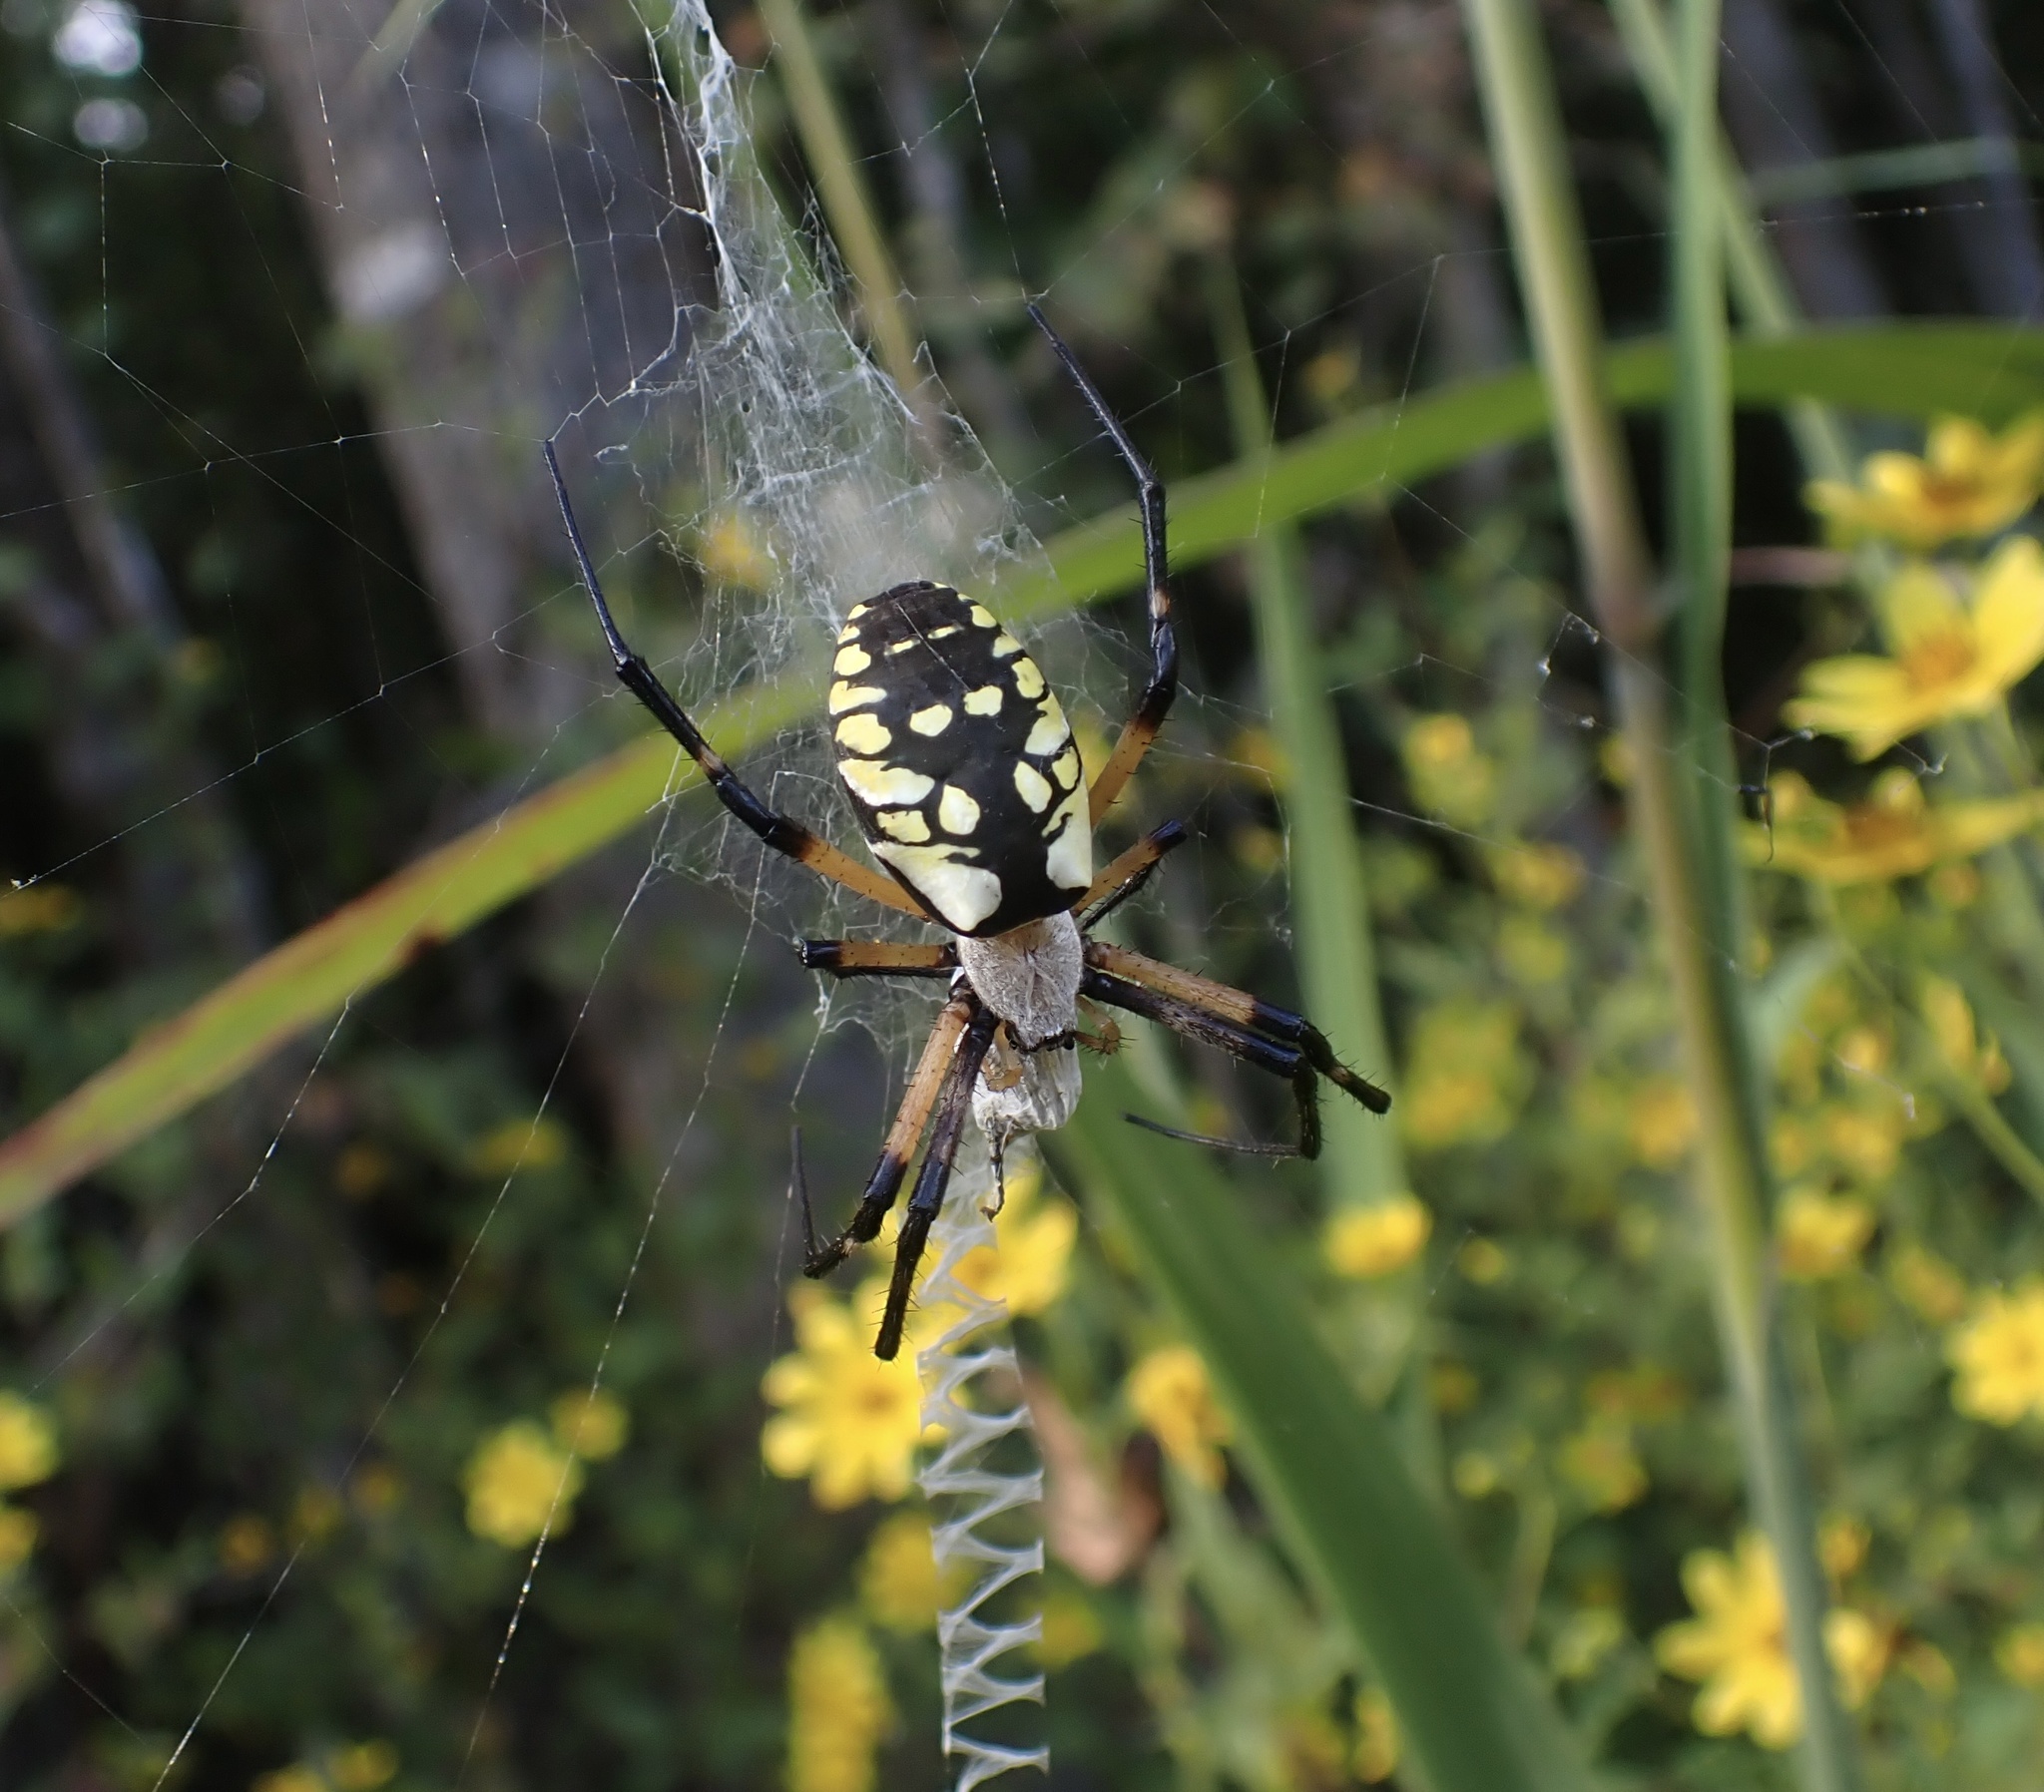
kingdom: Animalia
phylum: Arthropoda
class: Arachnida
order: Araneae
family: Araneidae
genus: Argiope
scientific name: Argiope aurantia
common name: Orb weavers
